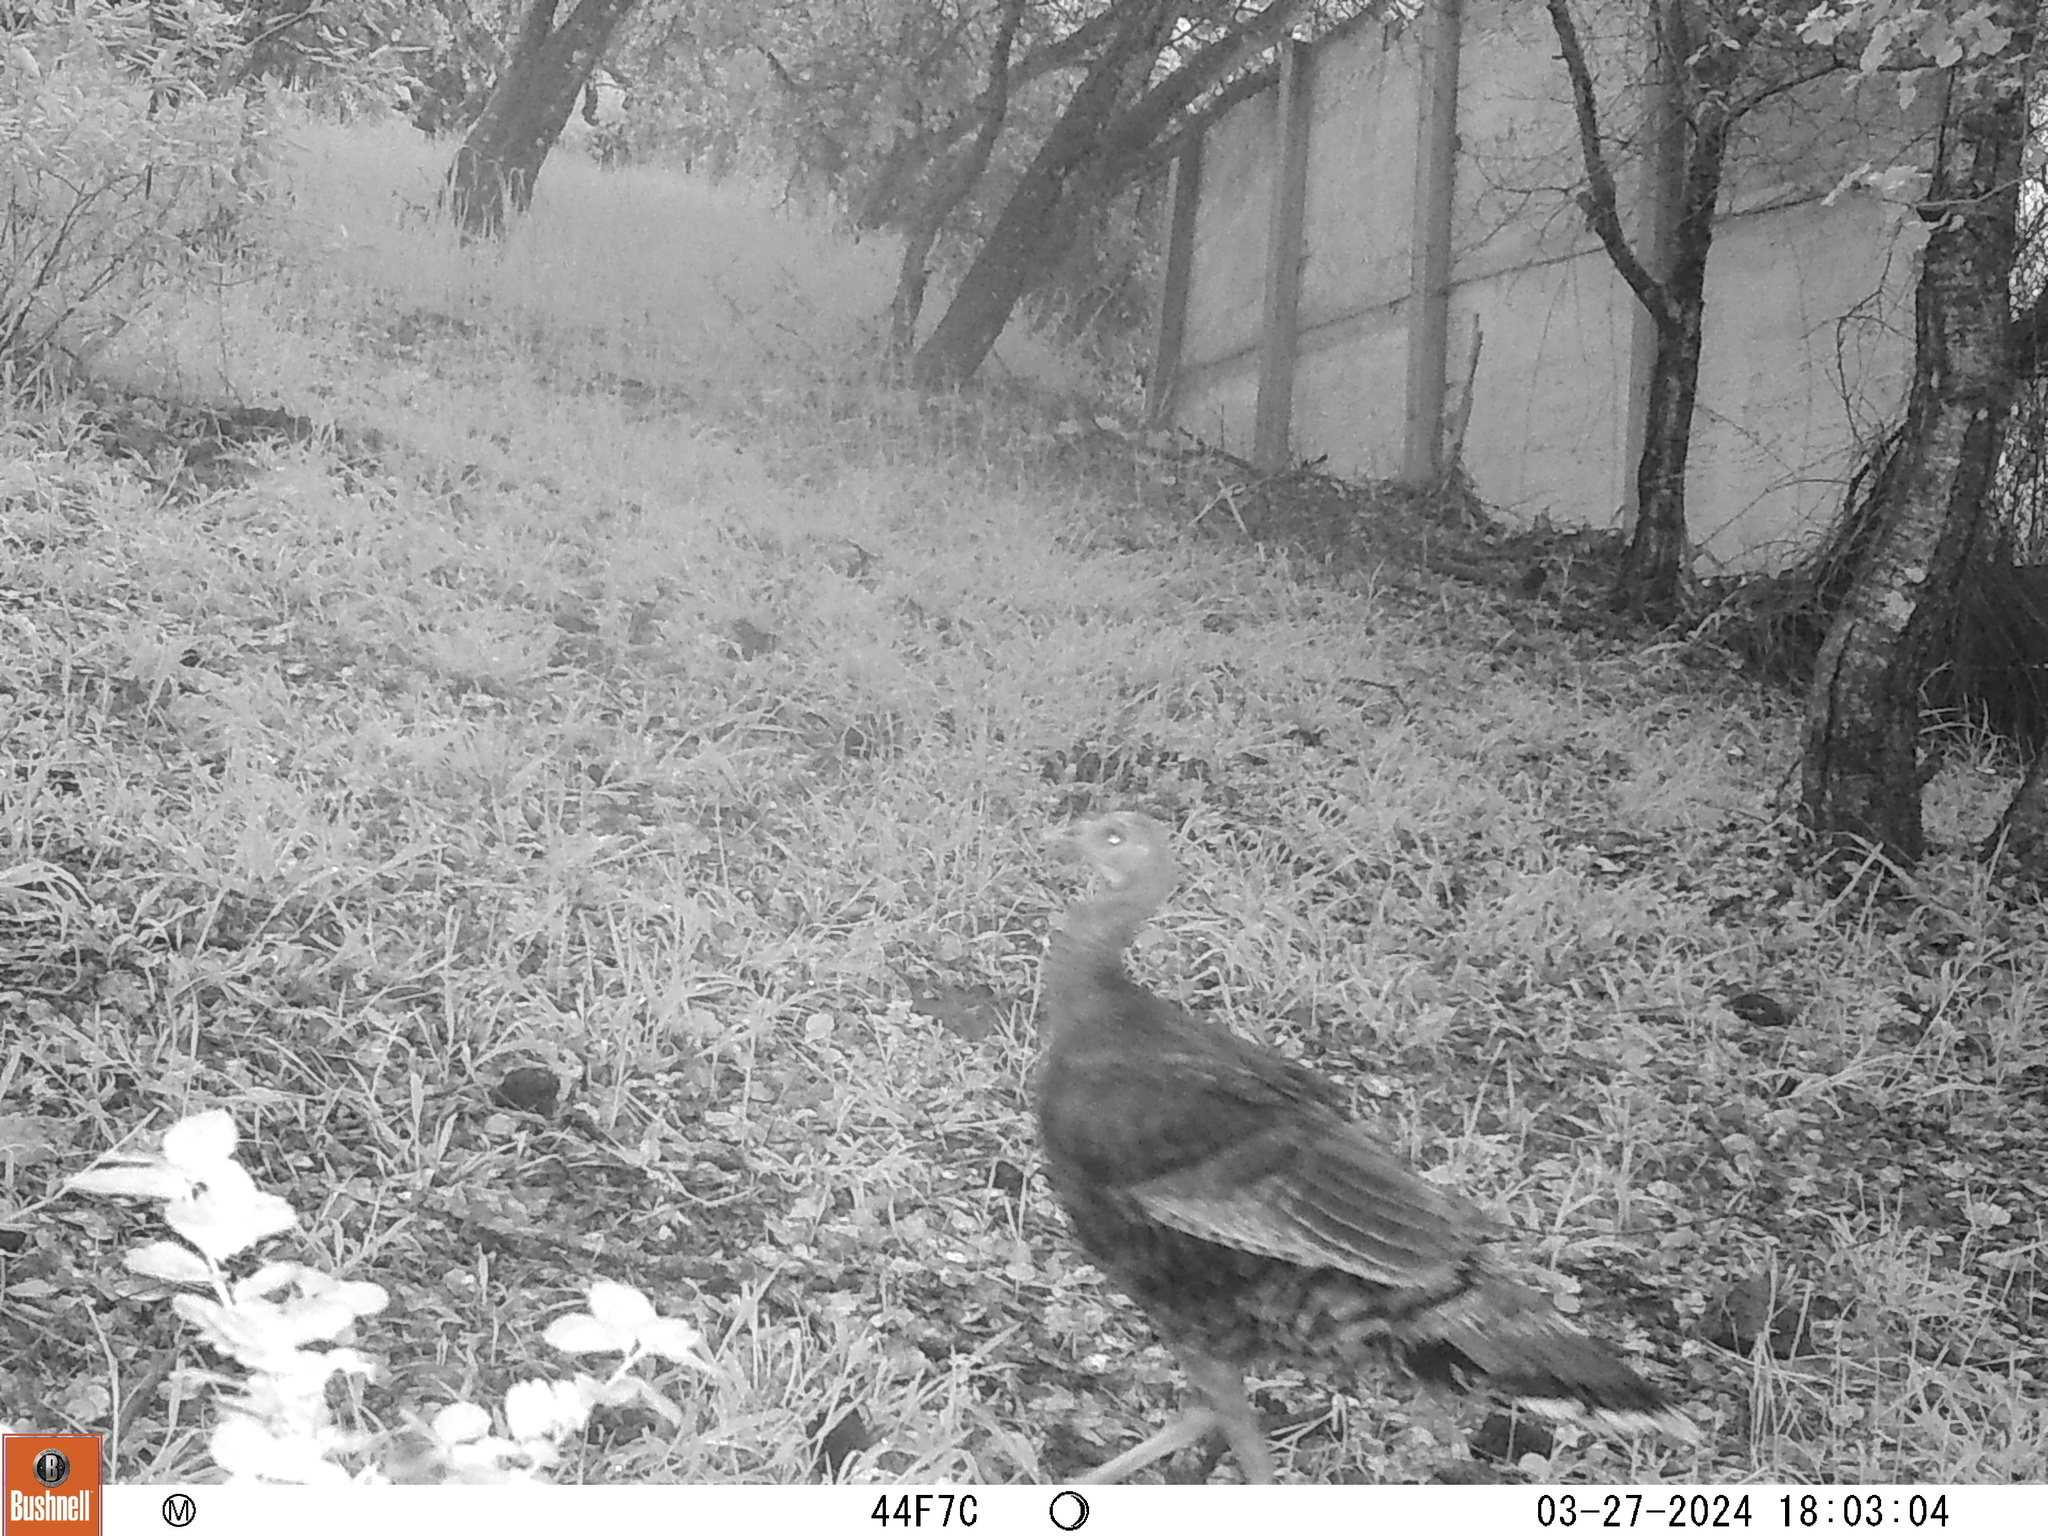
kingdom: Animalia
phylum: Chordata
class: Aves
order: Galliformes
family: Phasianidae
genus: Meleagris
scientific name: Meleagris gallopavo
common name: Wild turkey
